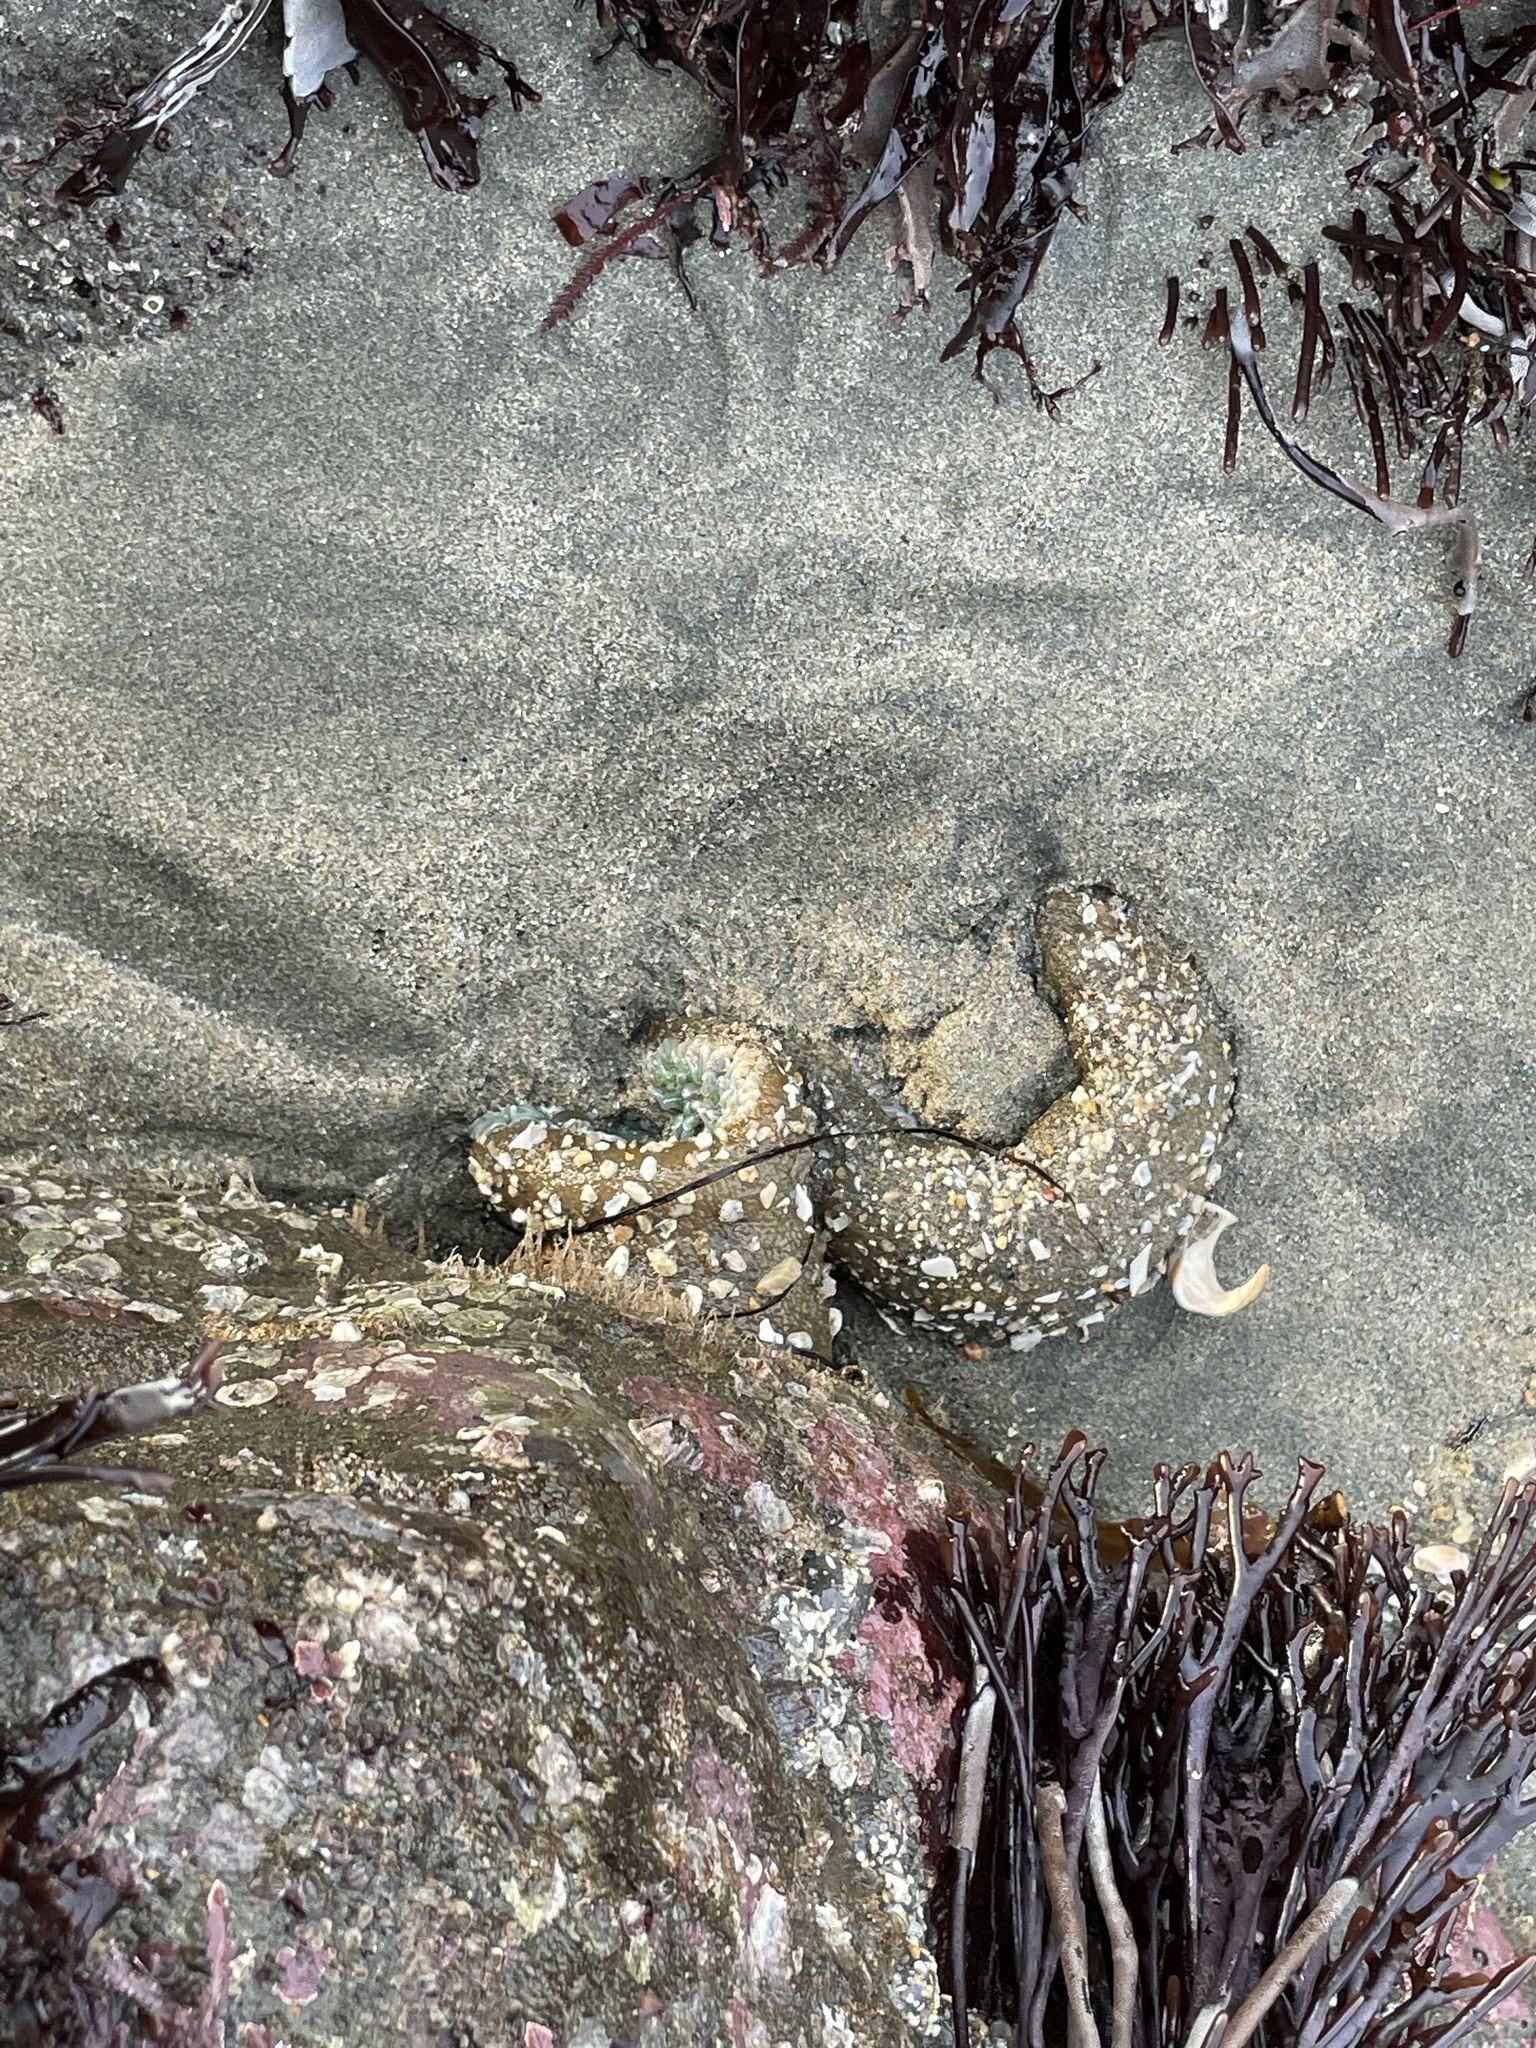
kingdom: Animalia
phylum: Cnidaria
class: Anthozoa
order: Actiniaria
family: Actiniidae
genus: Anthopleura
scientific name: Anthopleura xanthogrammica
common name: Giant green anemone
